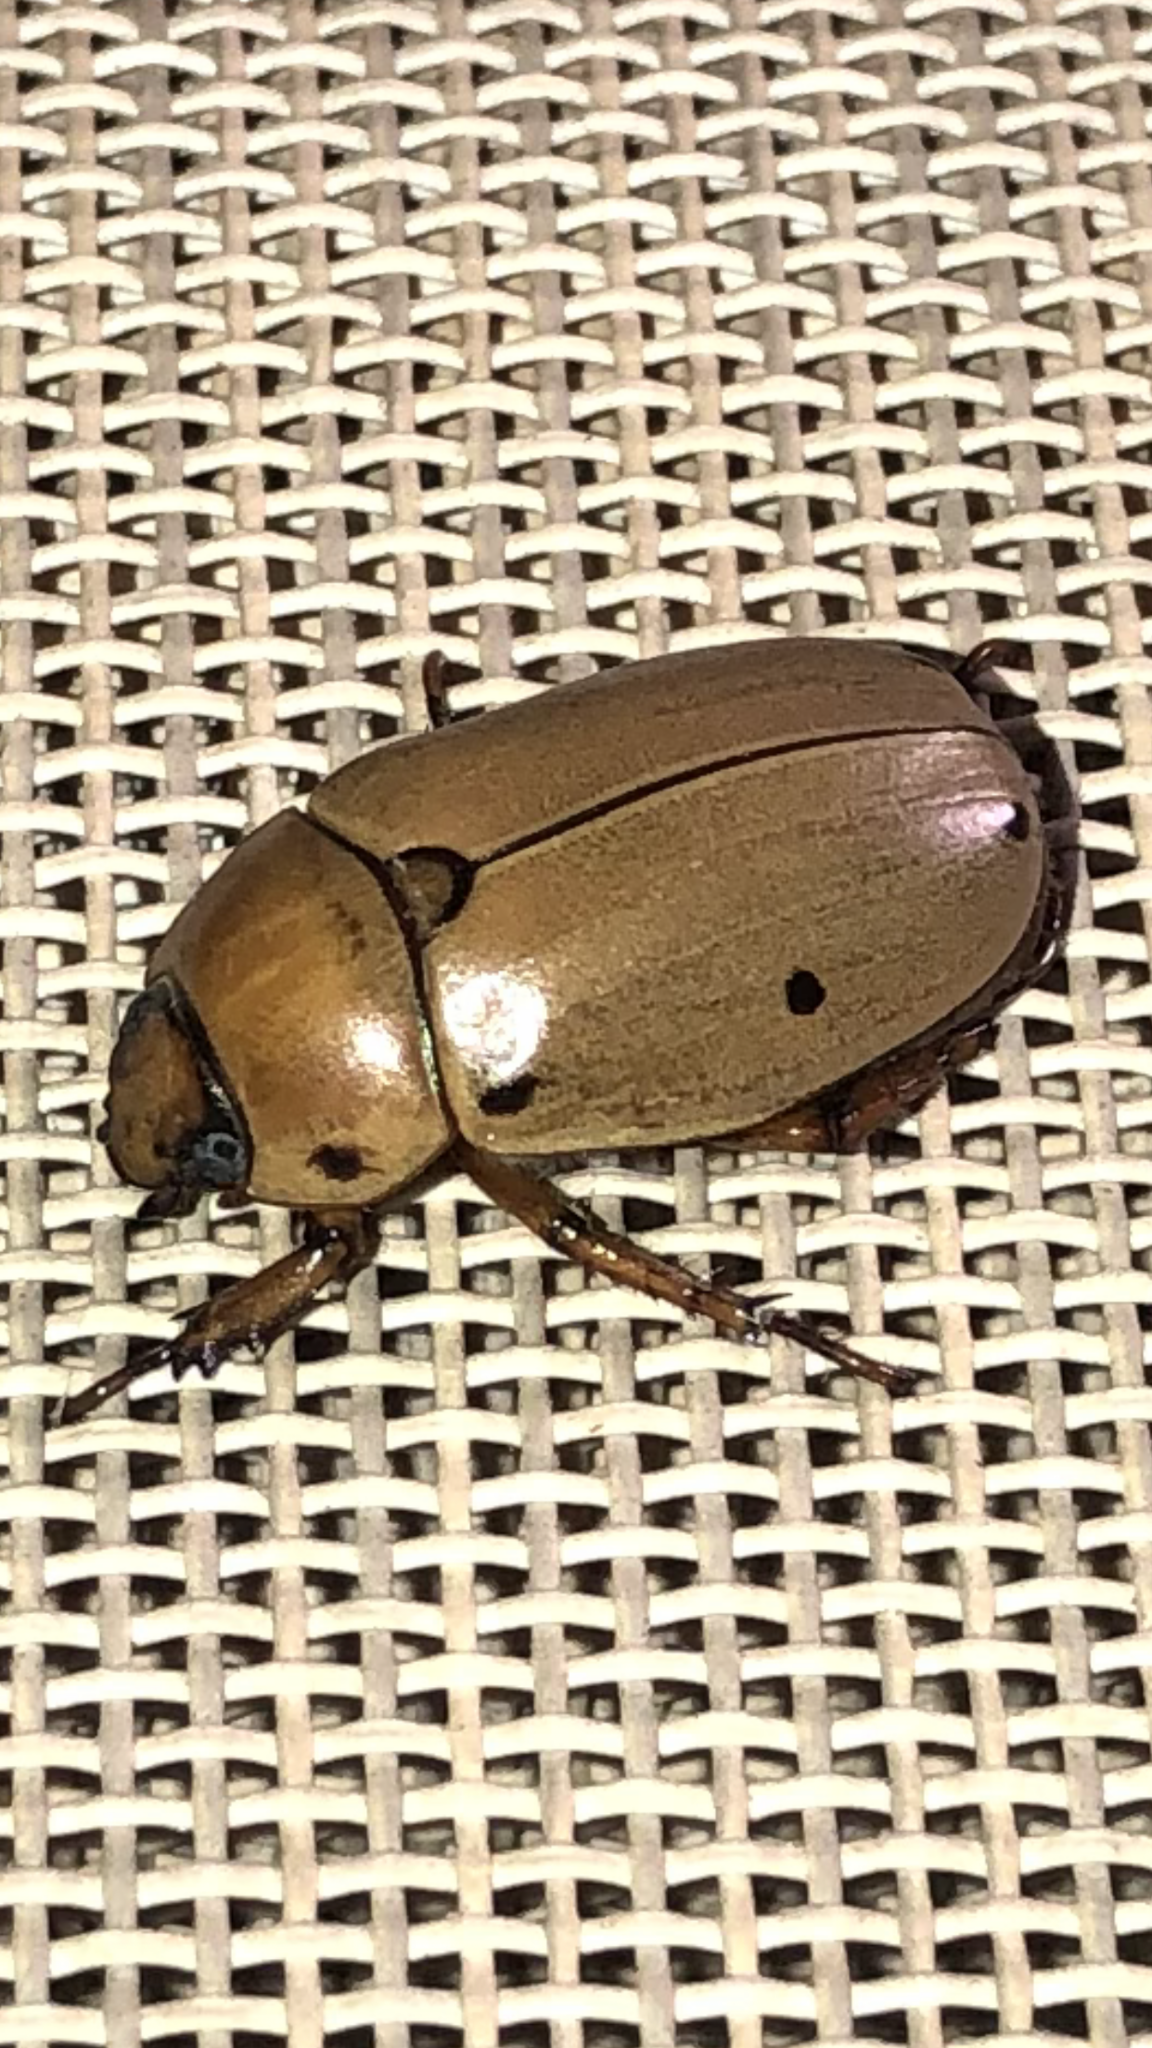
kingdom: Animalia
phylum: Arthropoda
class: Insecta
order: Coleoptera
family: Scarabaeidae
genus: Pelidnota
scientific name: Pelidnota punctata
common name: Grapevine beetle
